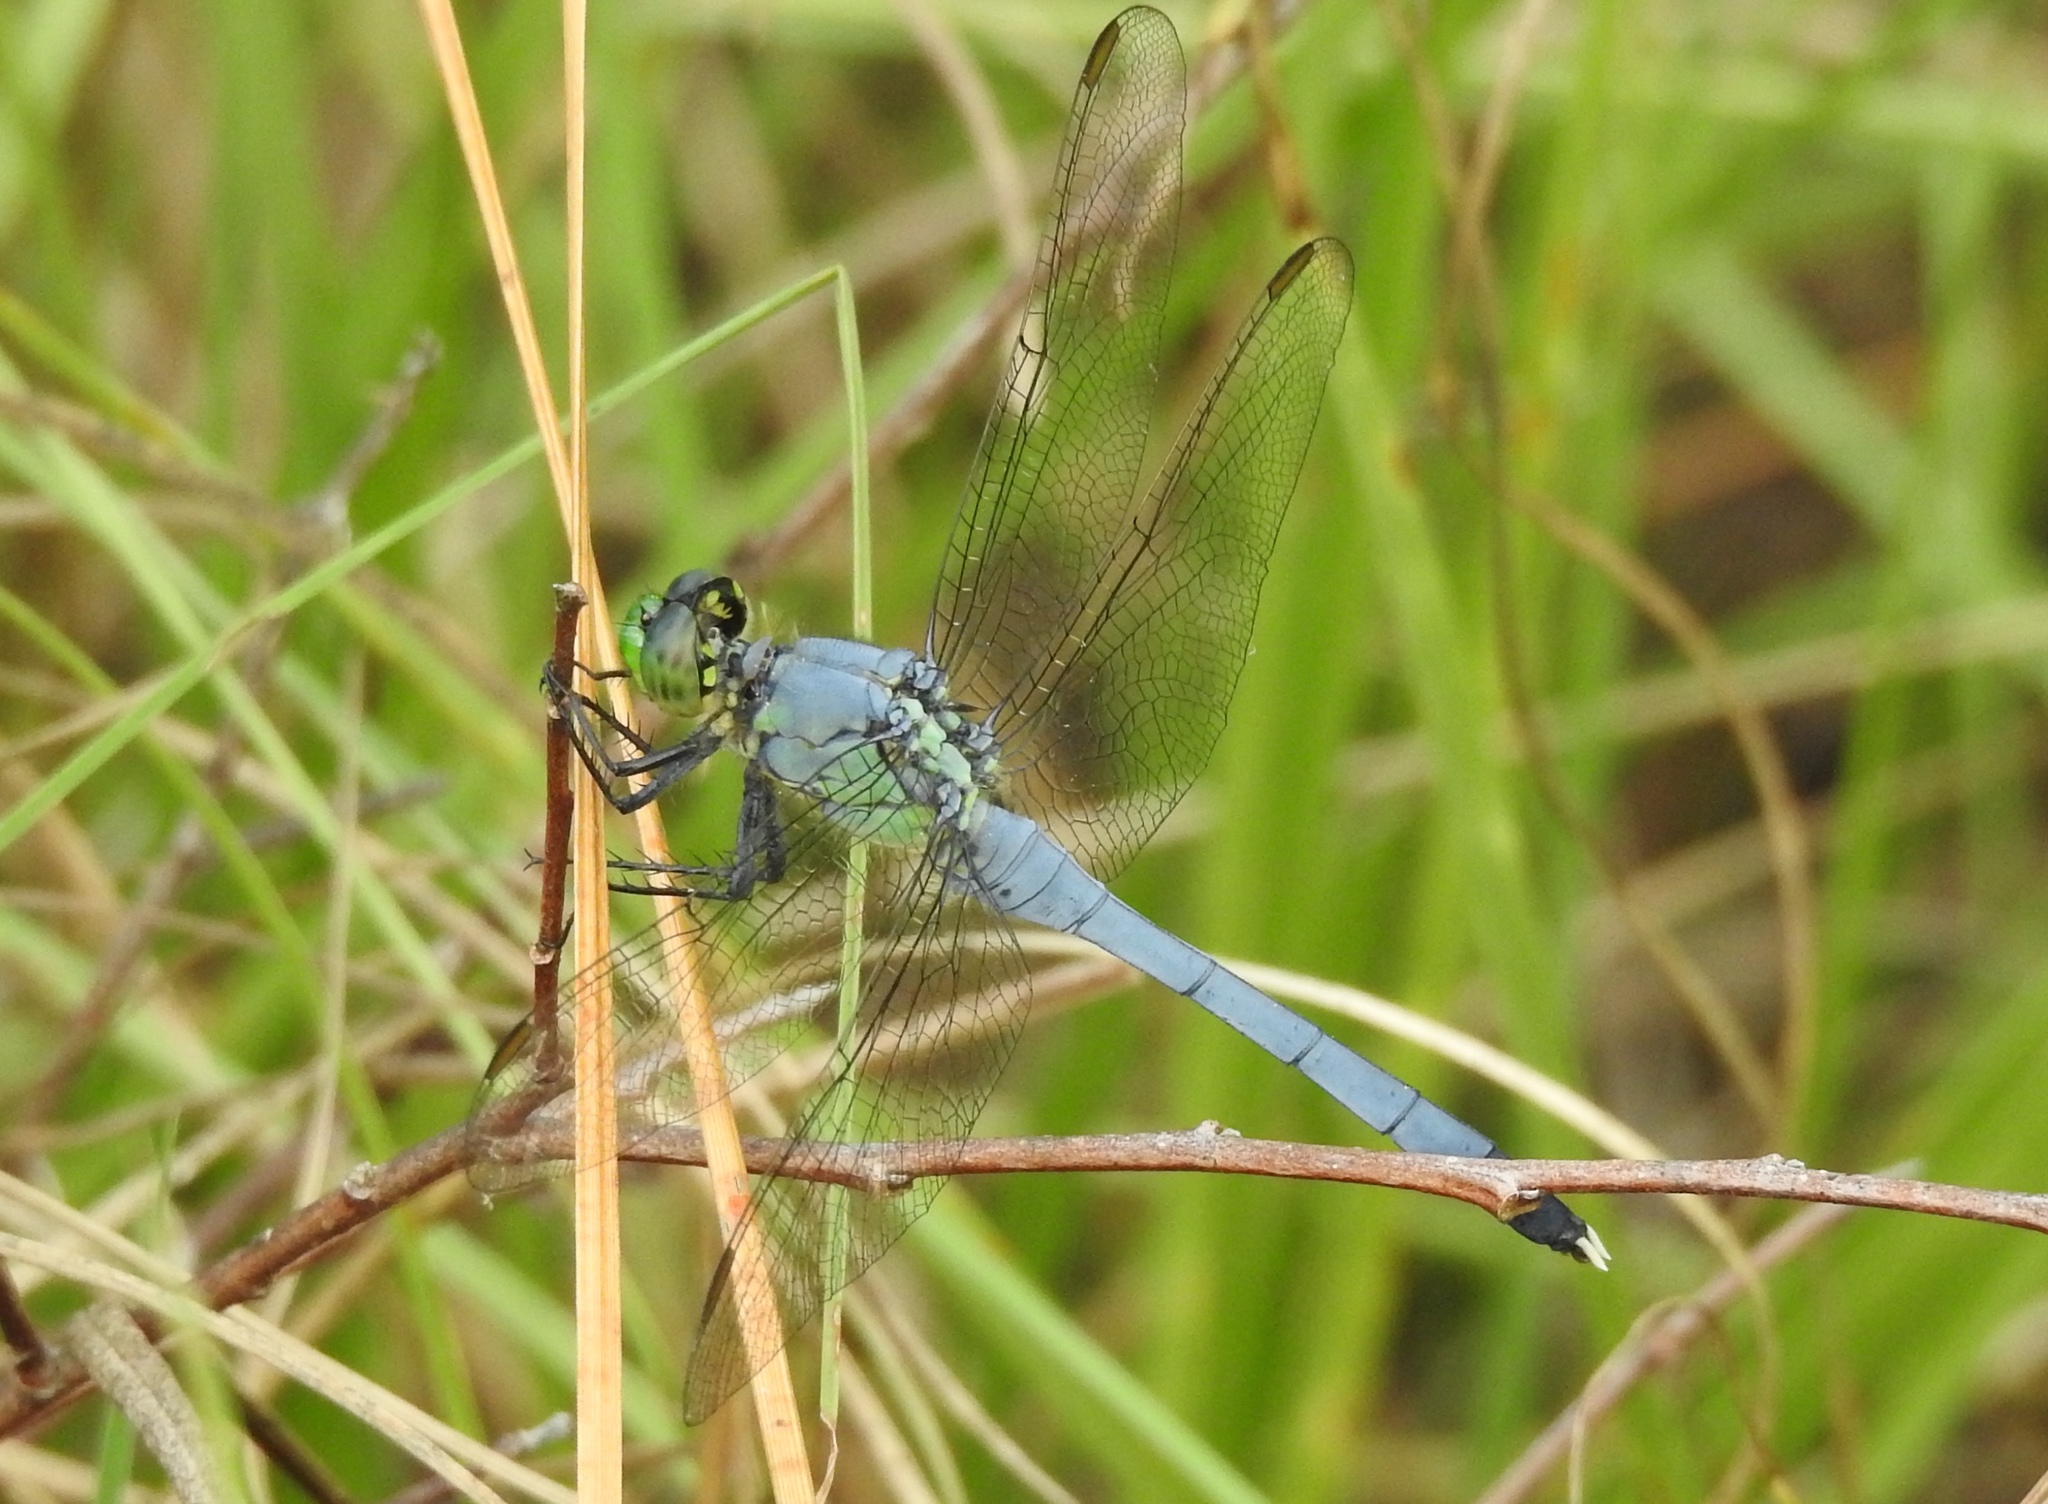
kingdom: Animalia
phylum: Arthropoda
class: Insecta
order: Odonata
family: Libellulidae
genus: Erythemis
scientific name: Erythemis simplicicollis
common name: Eastern pondhawk
